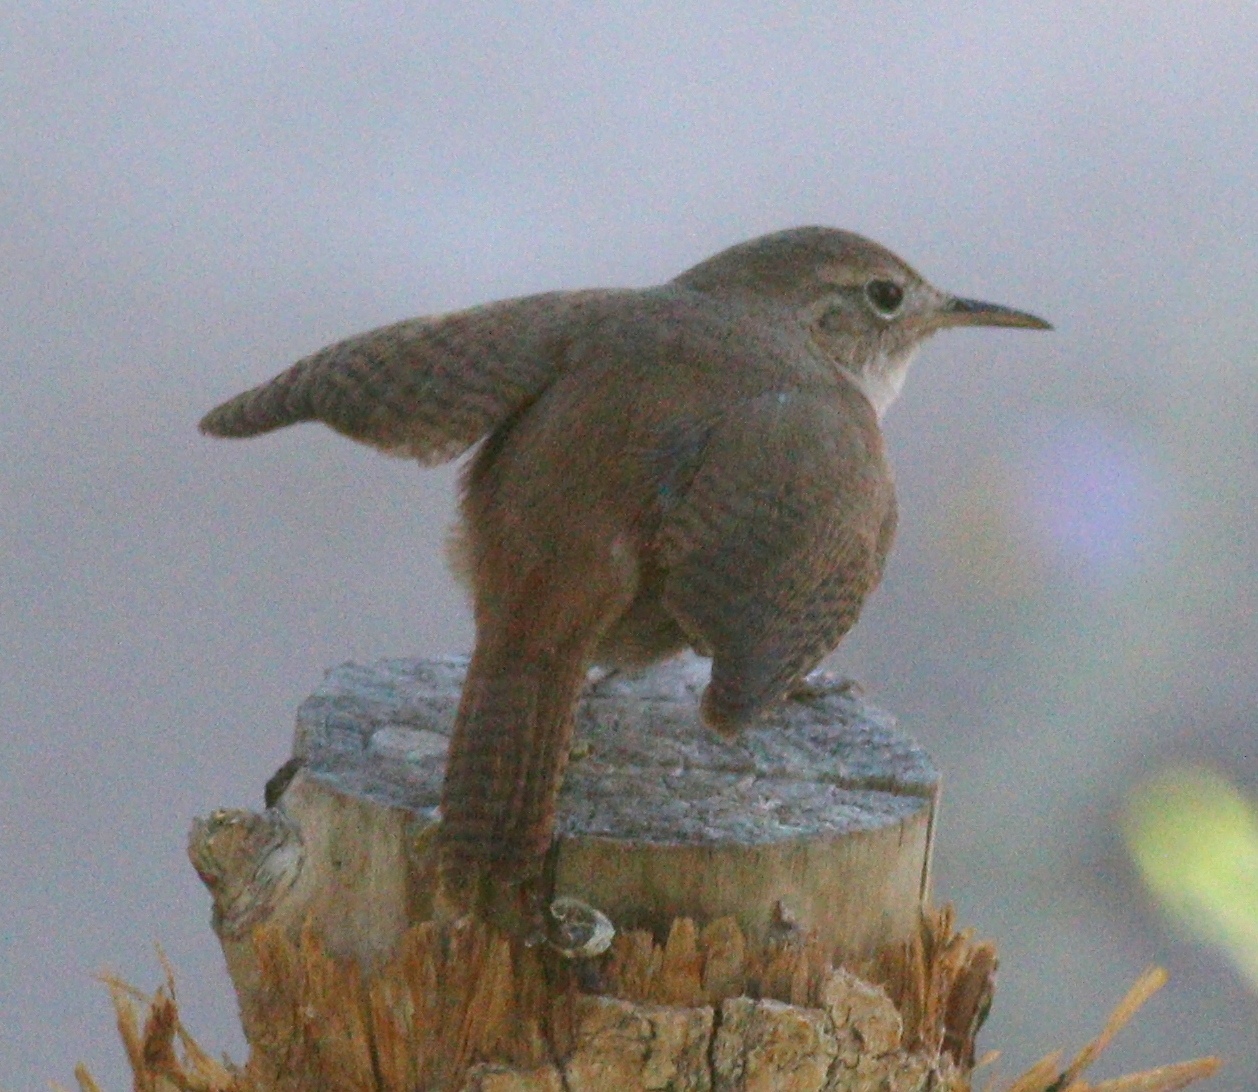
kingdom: Animalia
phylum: Chordata
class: Aves
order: Passeriformes
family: Troglodytidae
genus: Troglodytes
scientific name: Troglodytes aedon
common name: House wren
